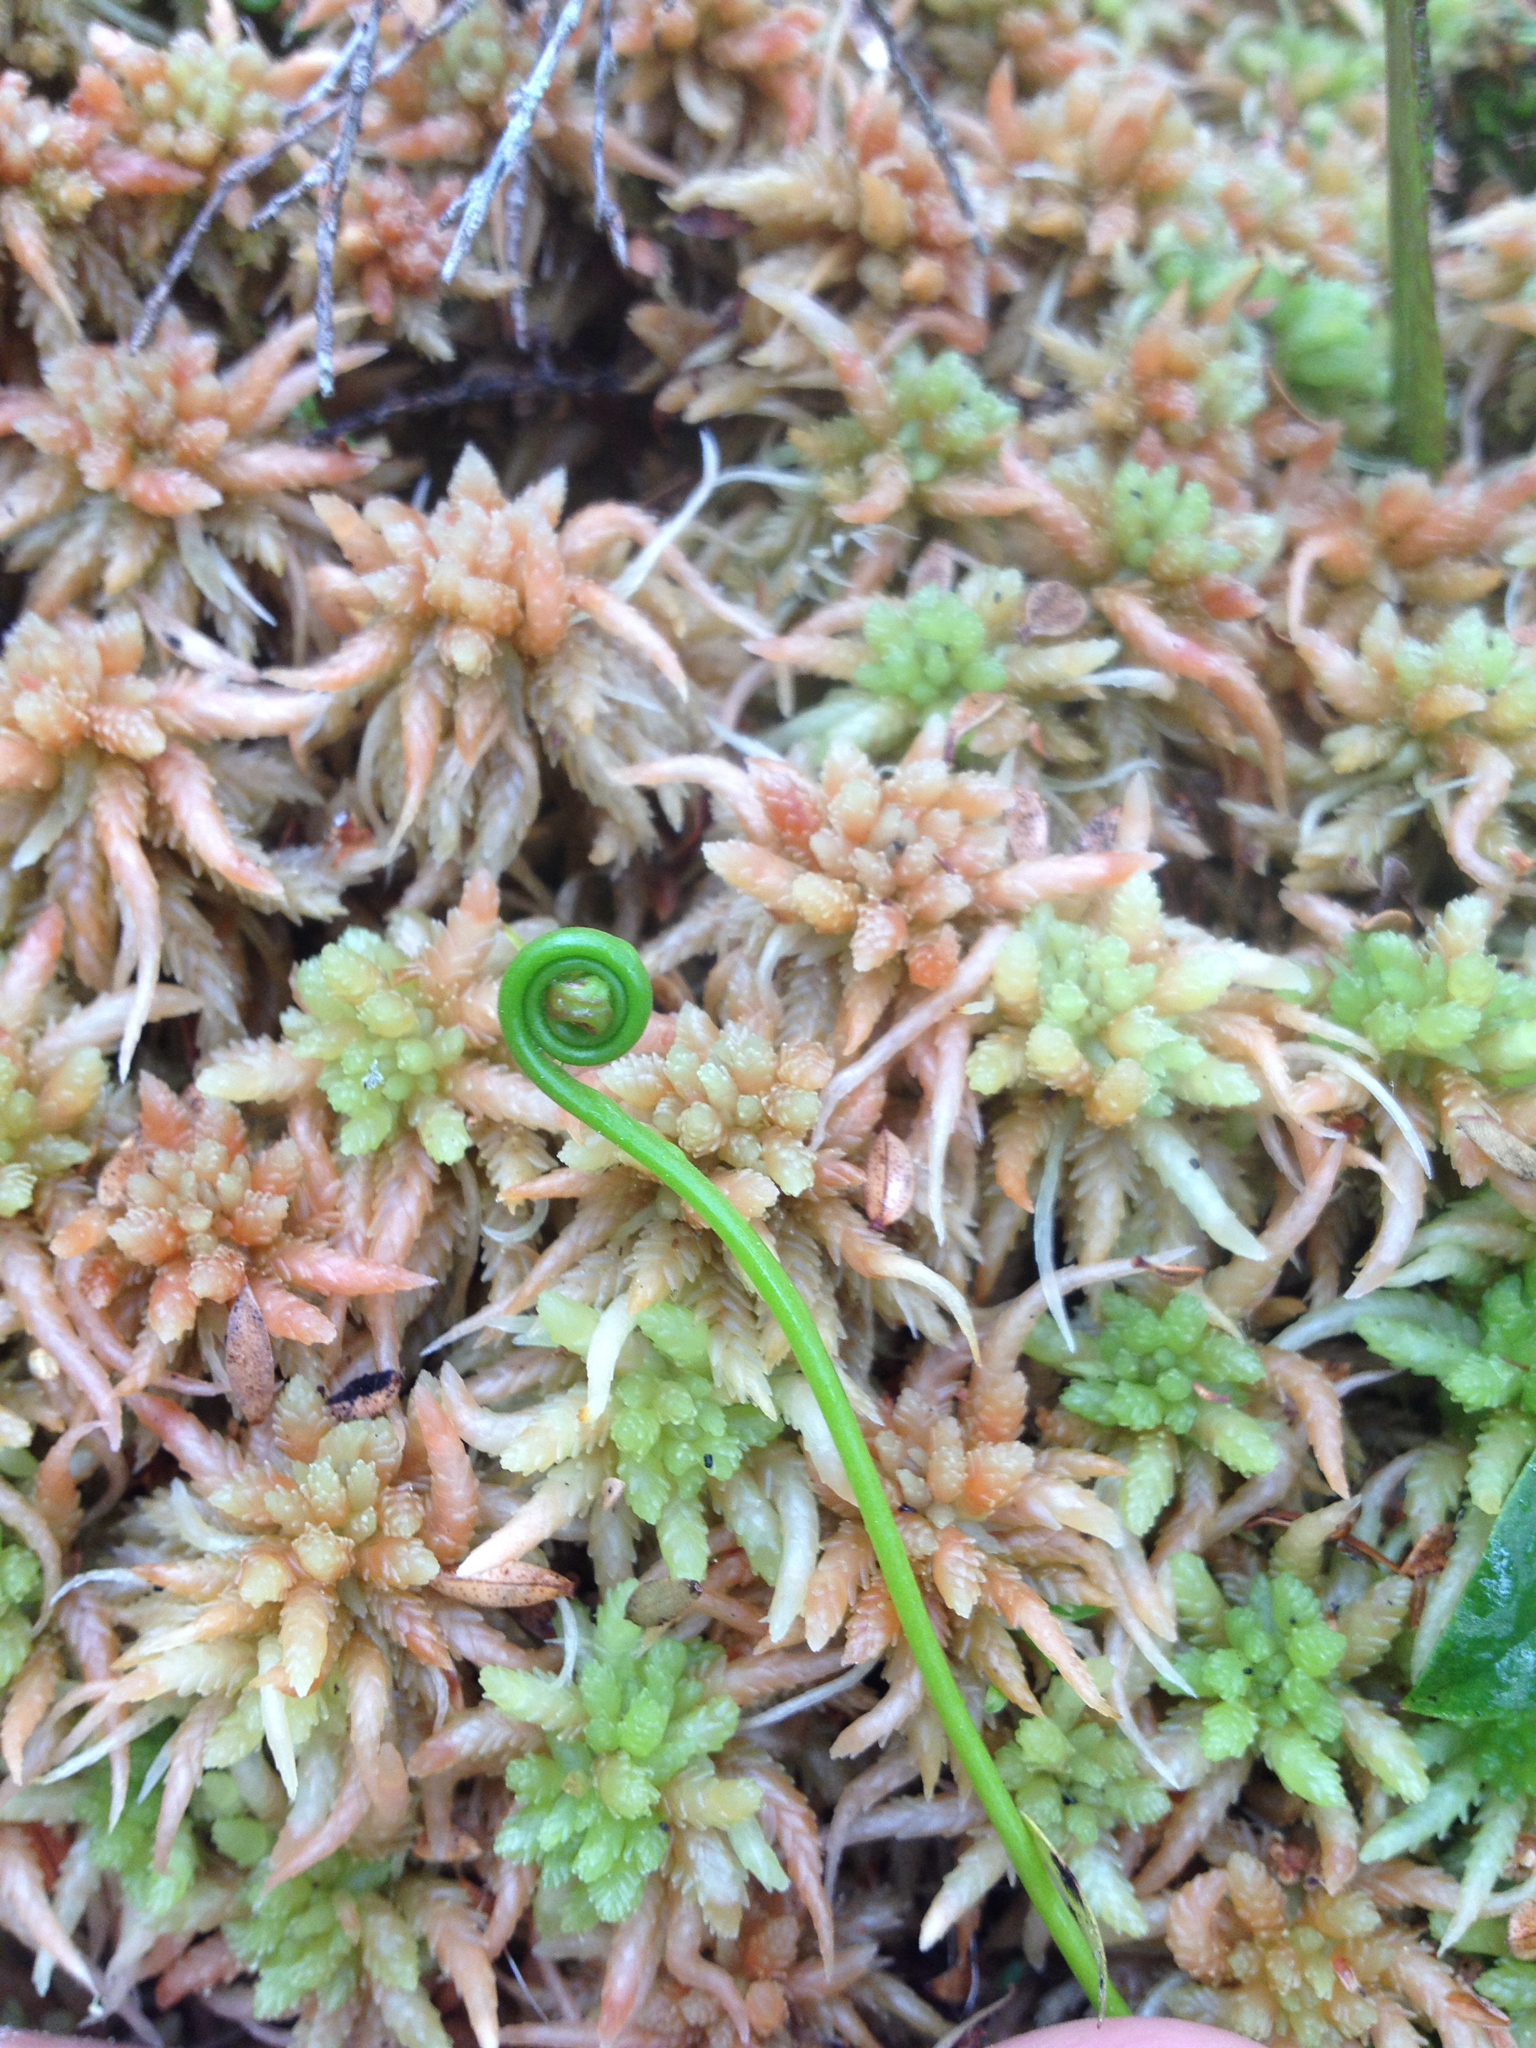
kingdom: Plantae
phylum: Tracheophyta
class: Magnoliopsida
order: Caryophyllales
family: Droseraceae
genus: Drosera
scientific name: Drosera binata
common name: Forked sundew
